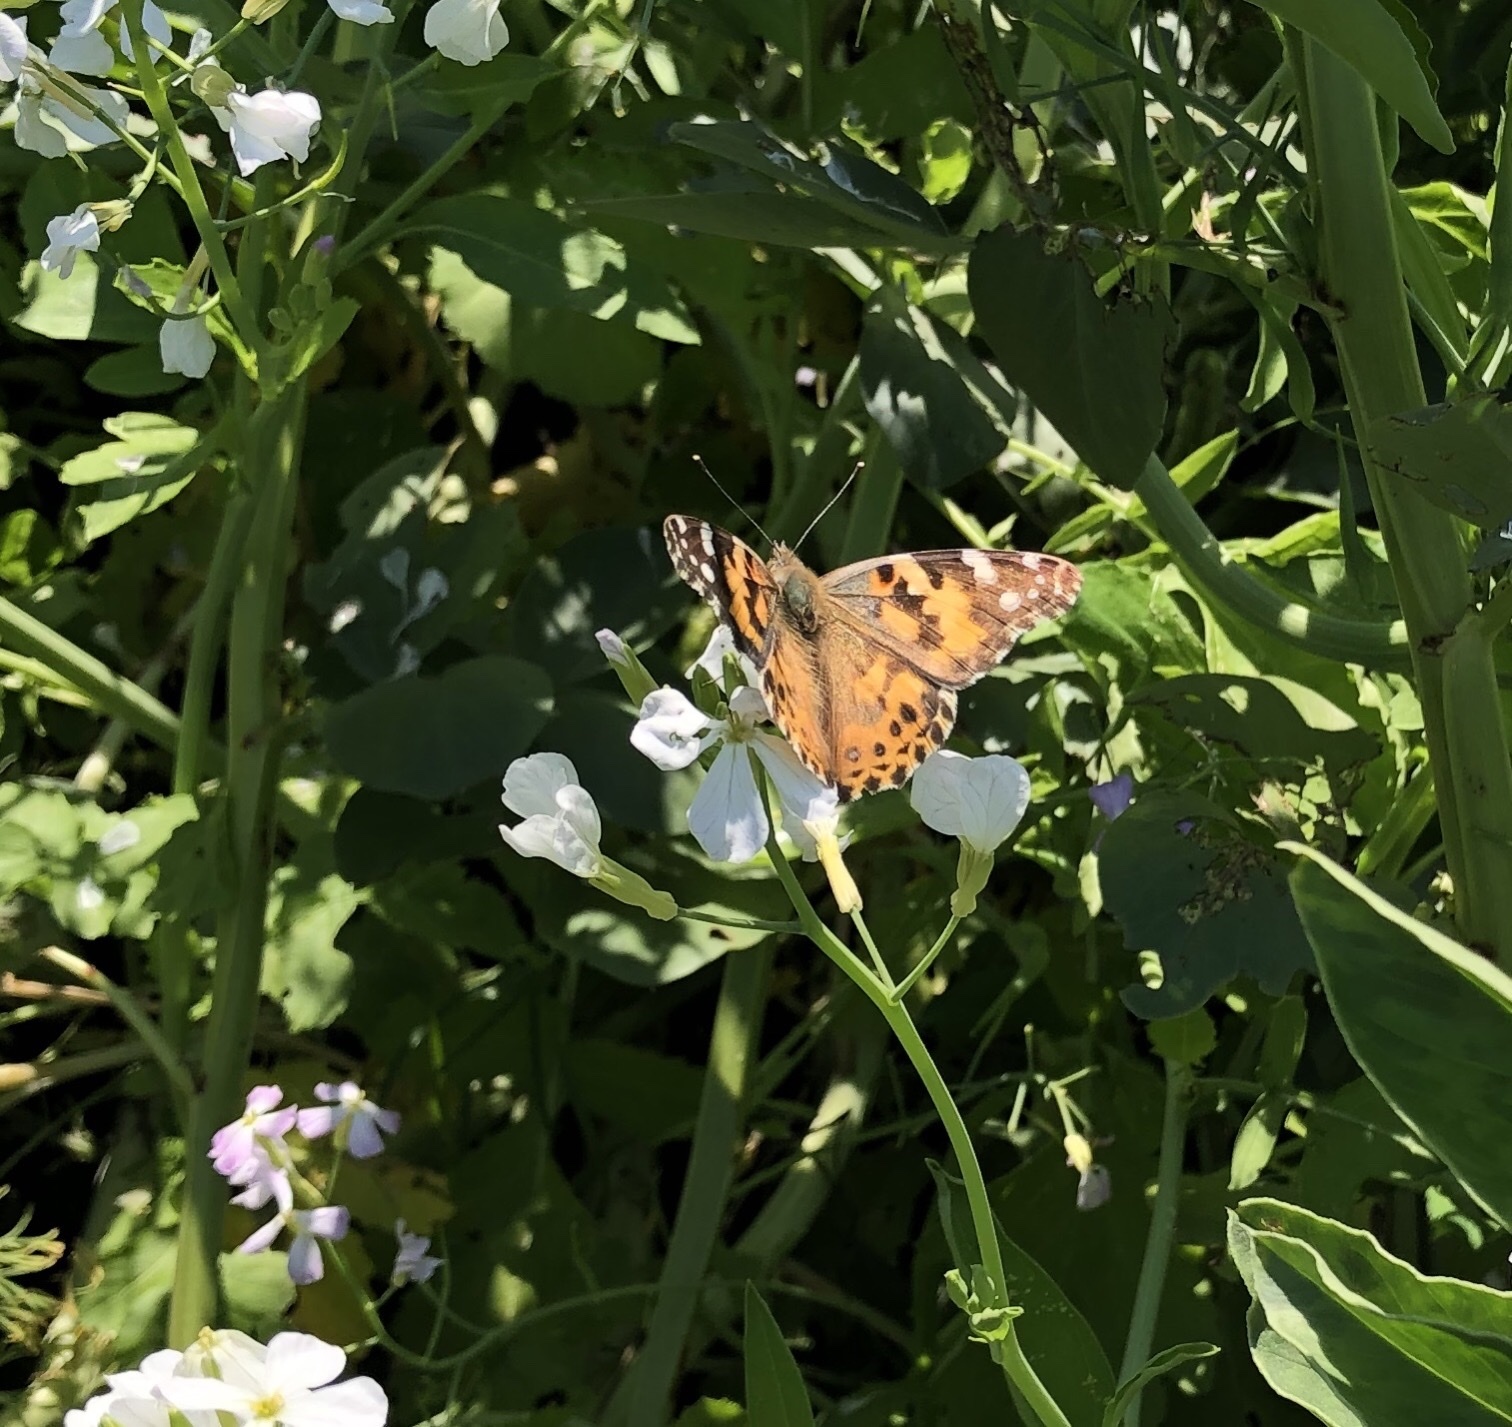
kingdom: Animalia
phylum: Arthropoda
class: Insecta
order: Lepidoptera
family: Nymphalidae
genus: Vanessa
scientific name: Vanessa cardui
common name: Painted lady
